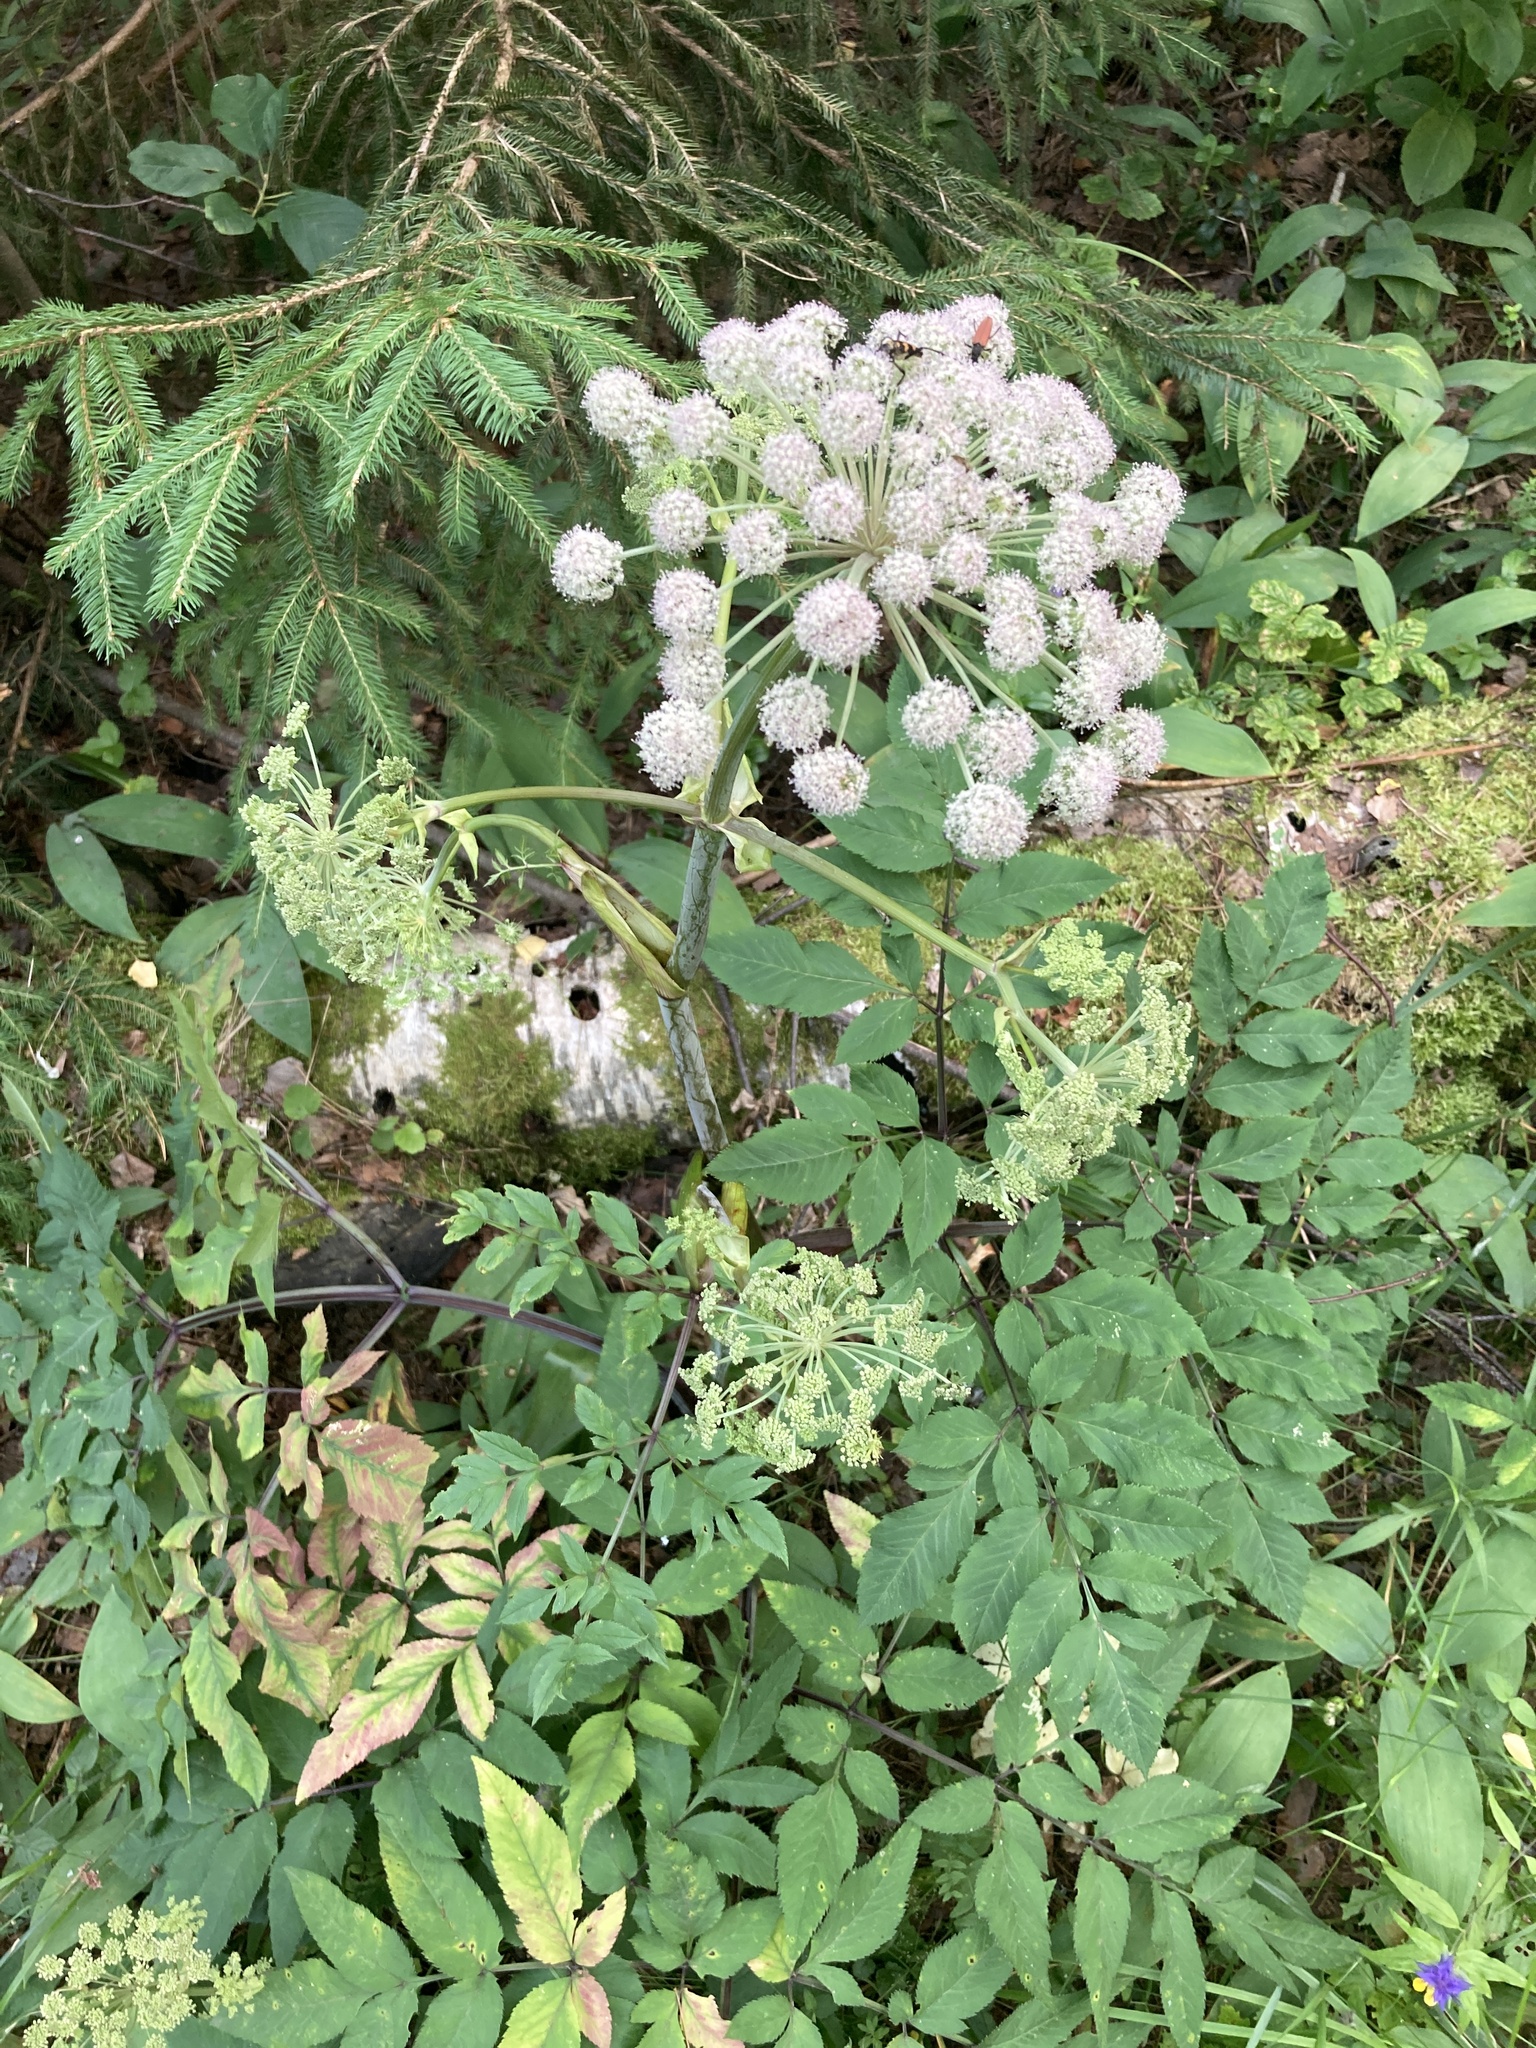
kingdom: Plantae
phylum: Tracheophyta
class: Magnoliopsida
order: Apiales
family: Apiaceae
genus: Angelica
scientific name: Angelica sylvestris
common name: Wild angelica
